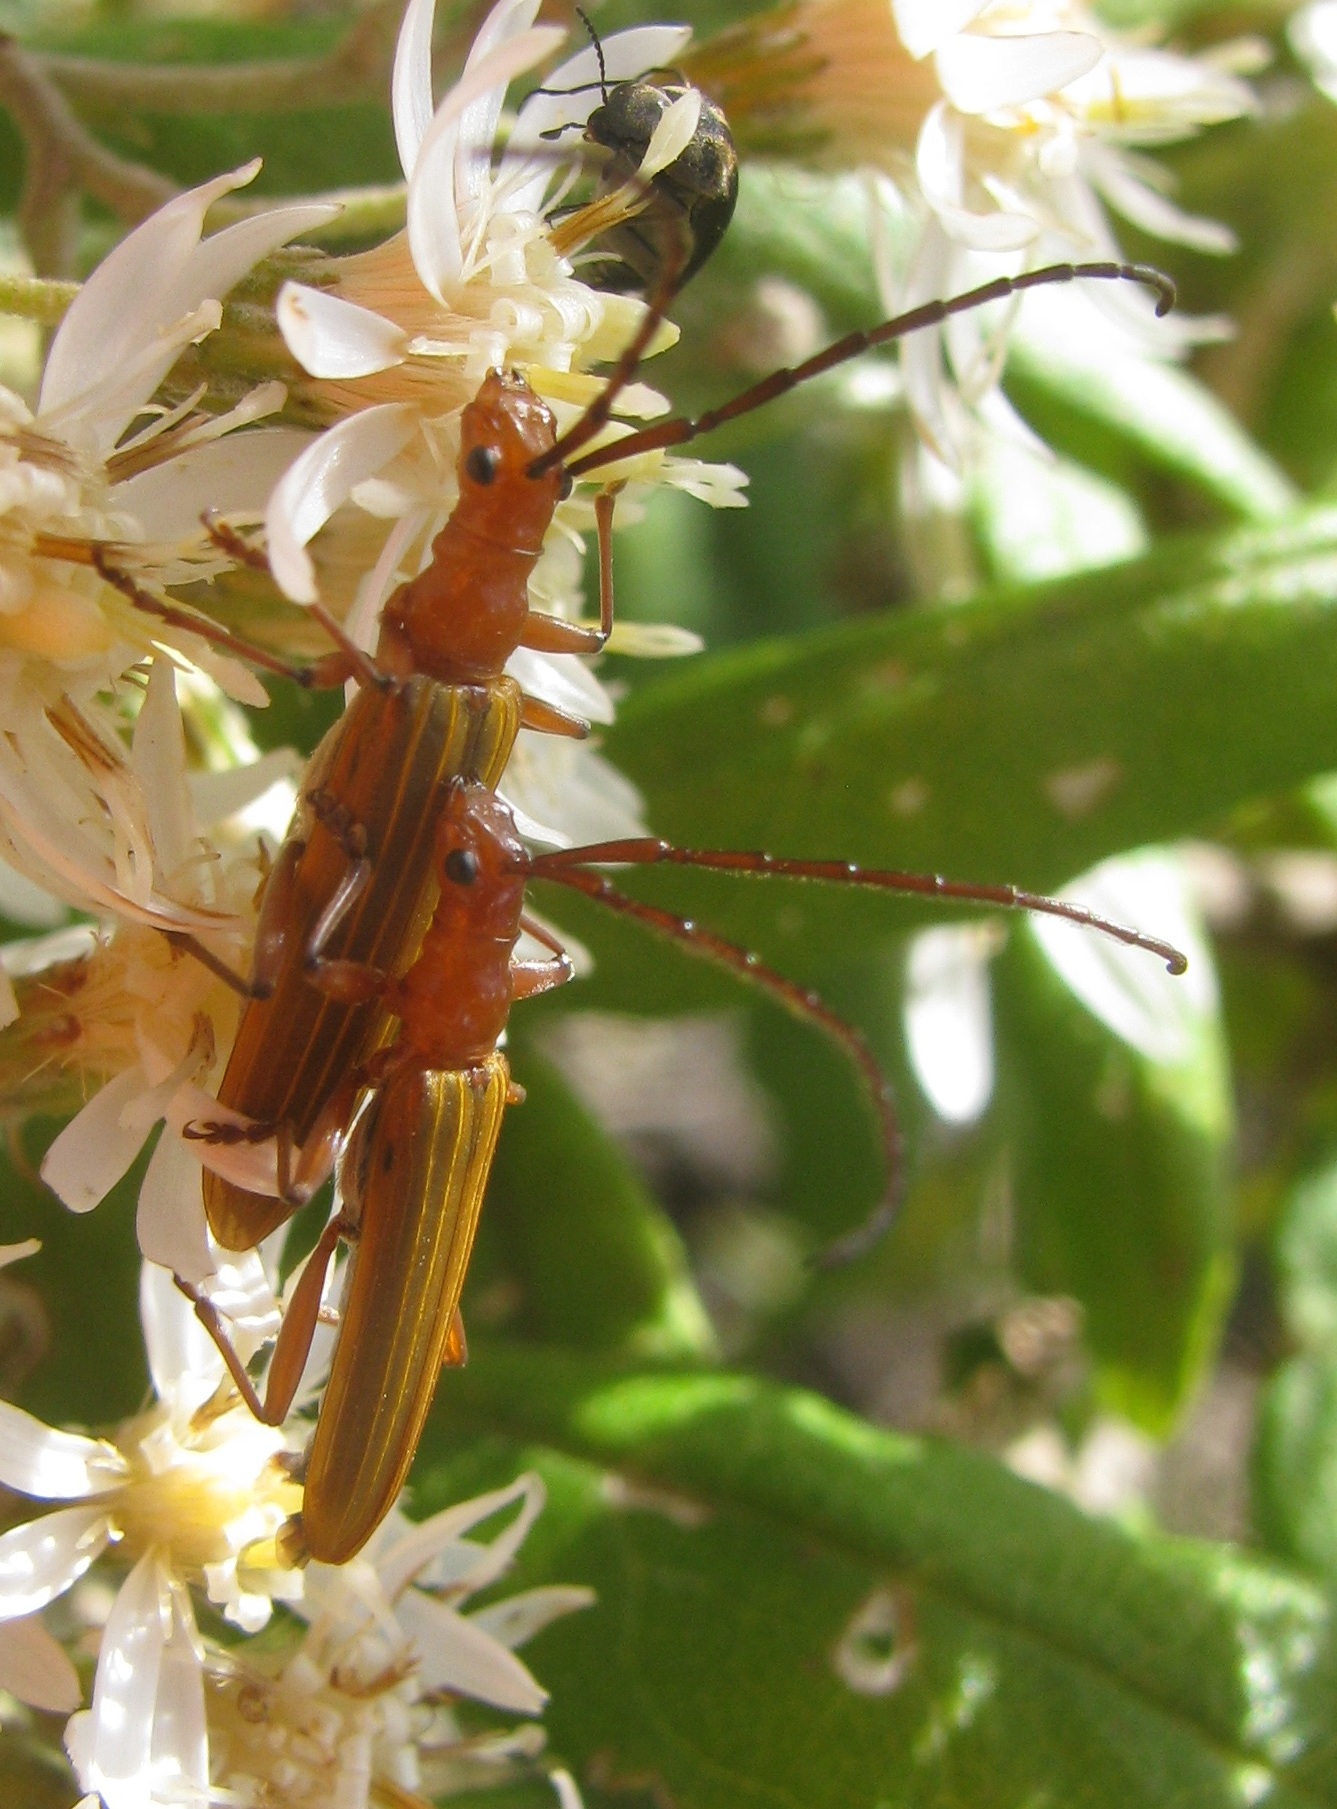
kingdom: Animalia
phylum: Arthropoda
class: Insecta
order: Coleoptera
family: Cerambycidae
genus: Stenoderus
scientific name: Stenoderus concolor
